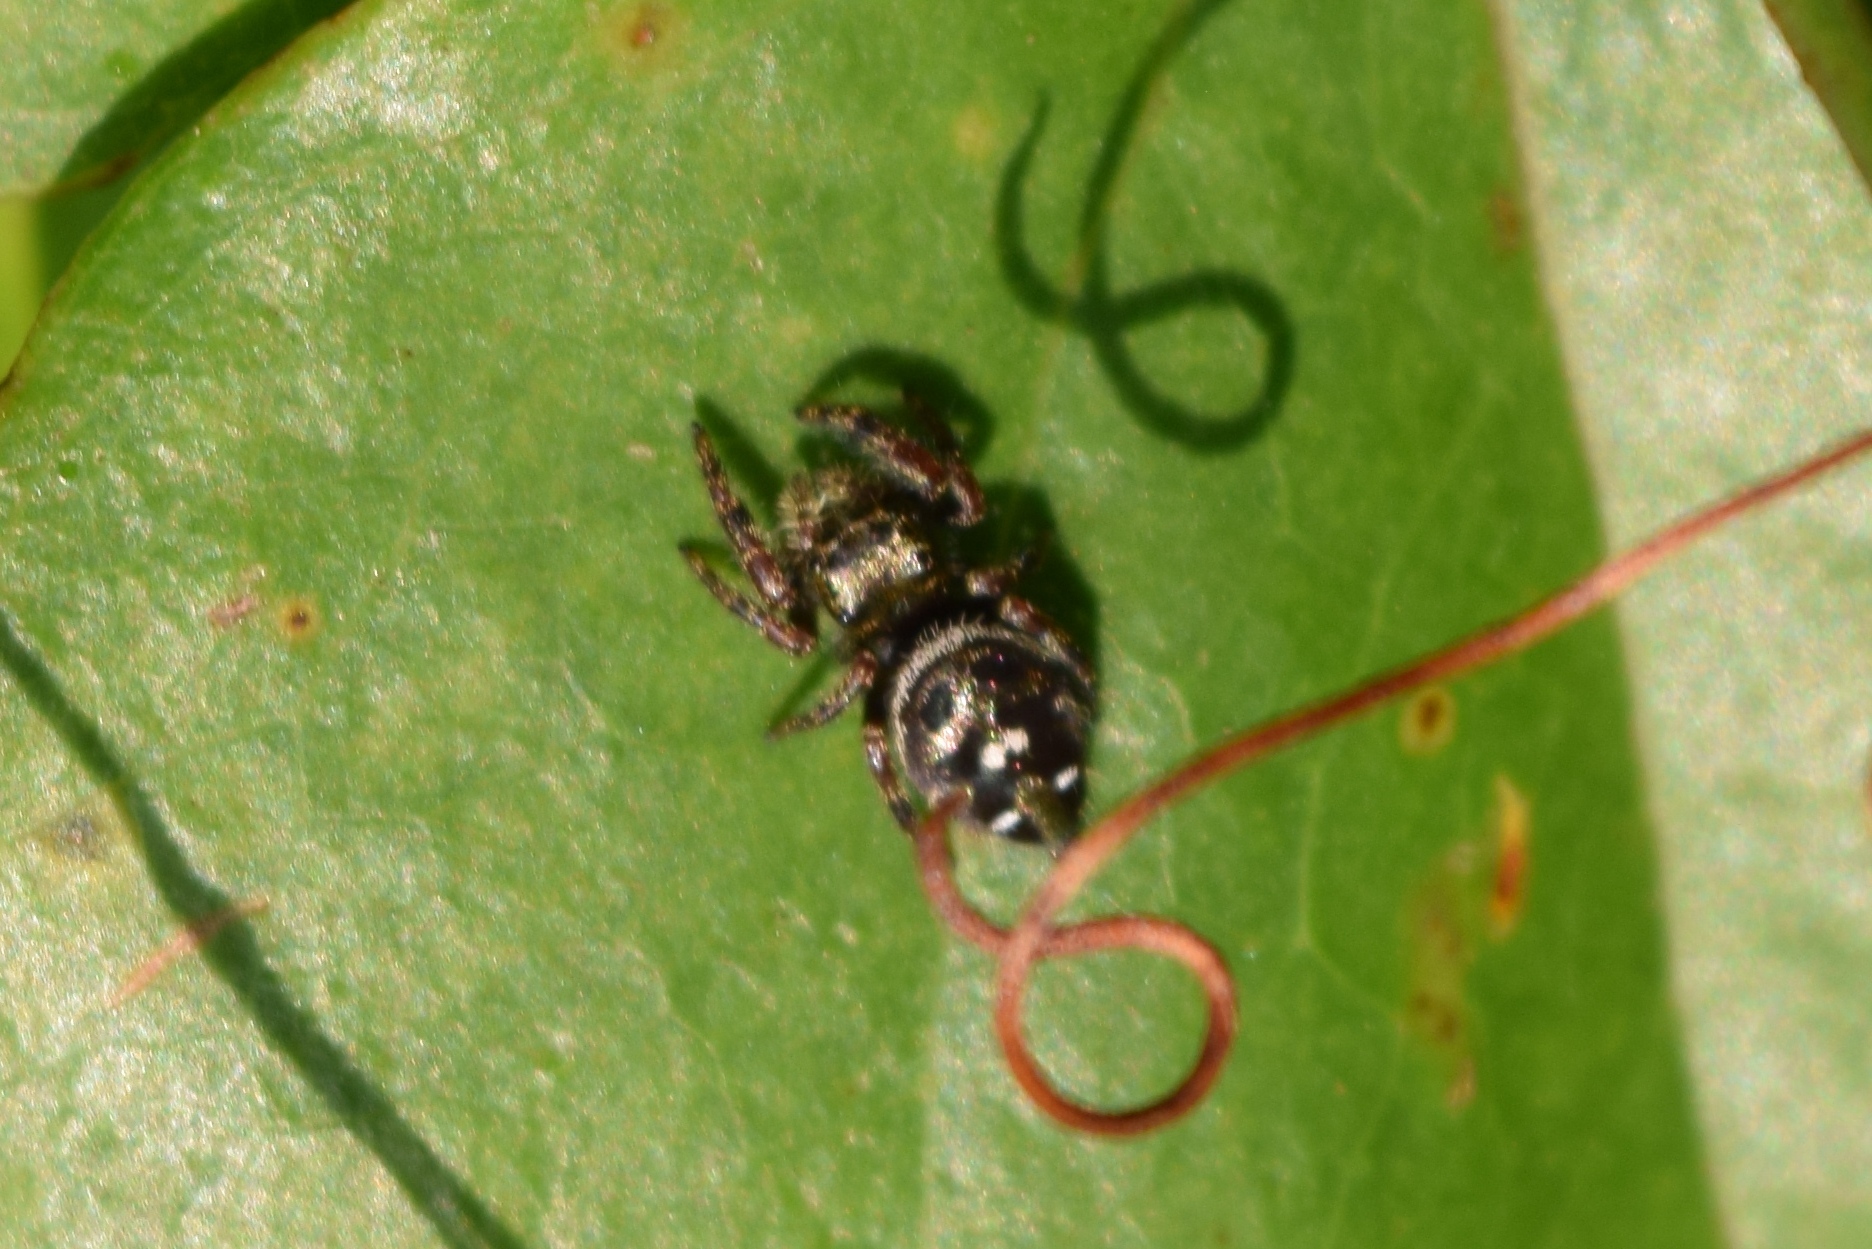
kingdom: Animalia
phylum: Arthropoda
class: Arachnida
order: Araneae
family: Salticidae
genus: Phidippus
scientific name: Phidippus audax
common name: Bold jumper
